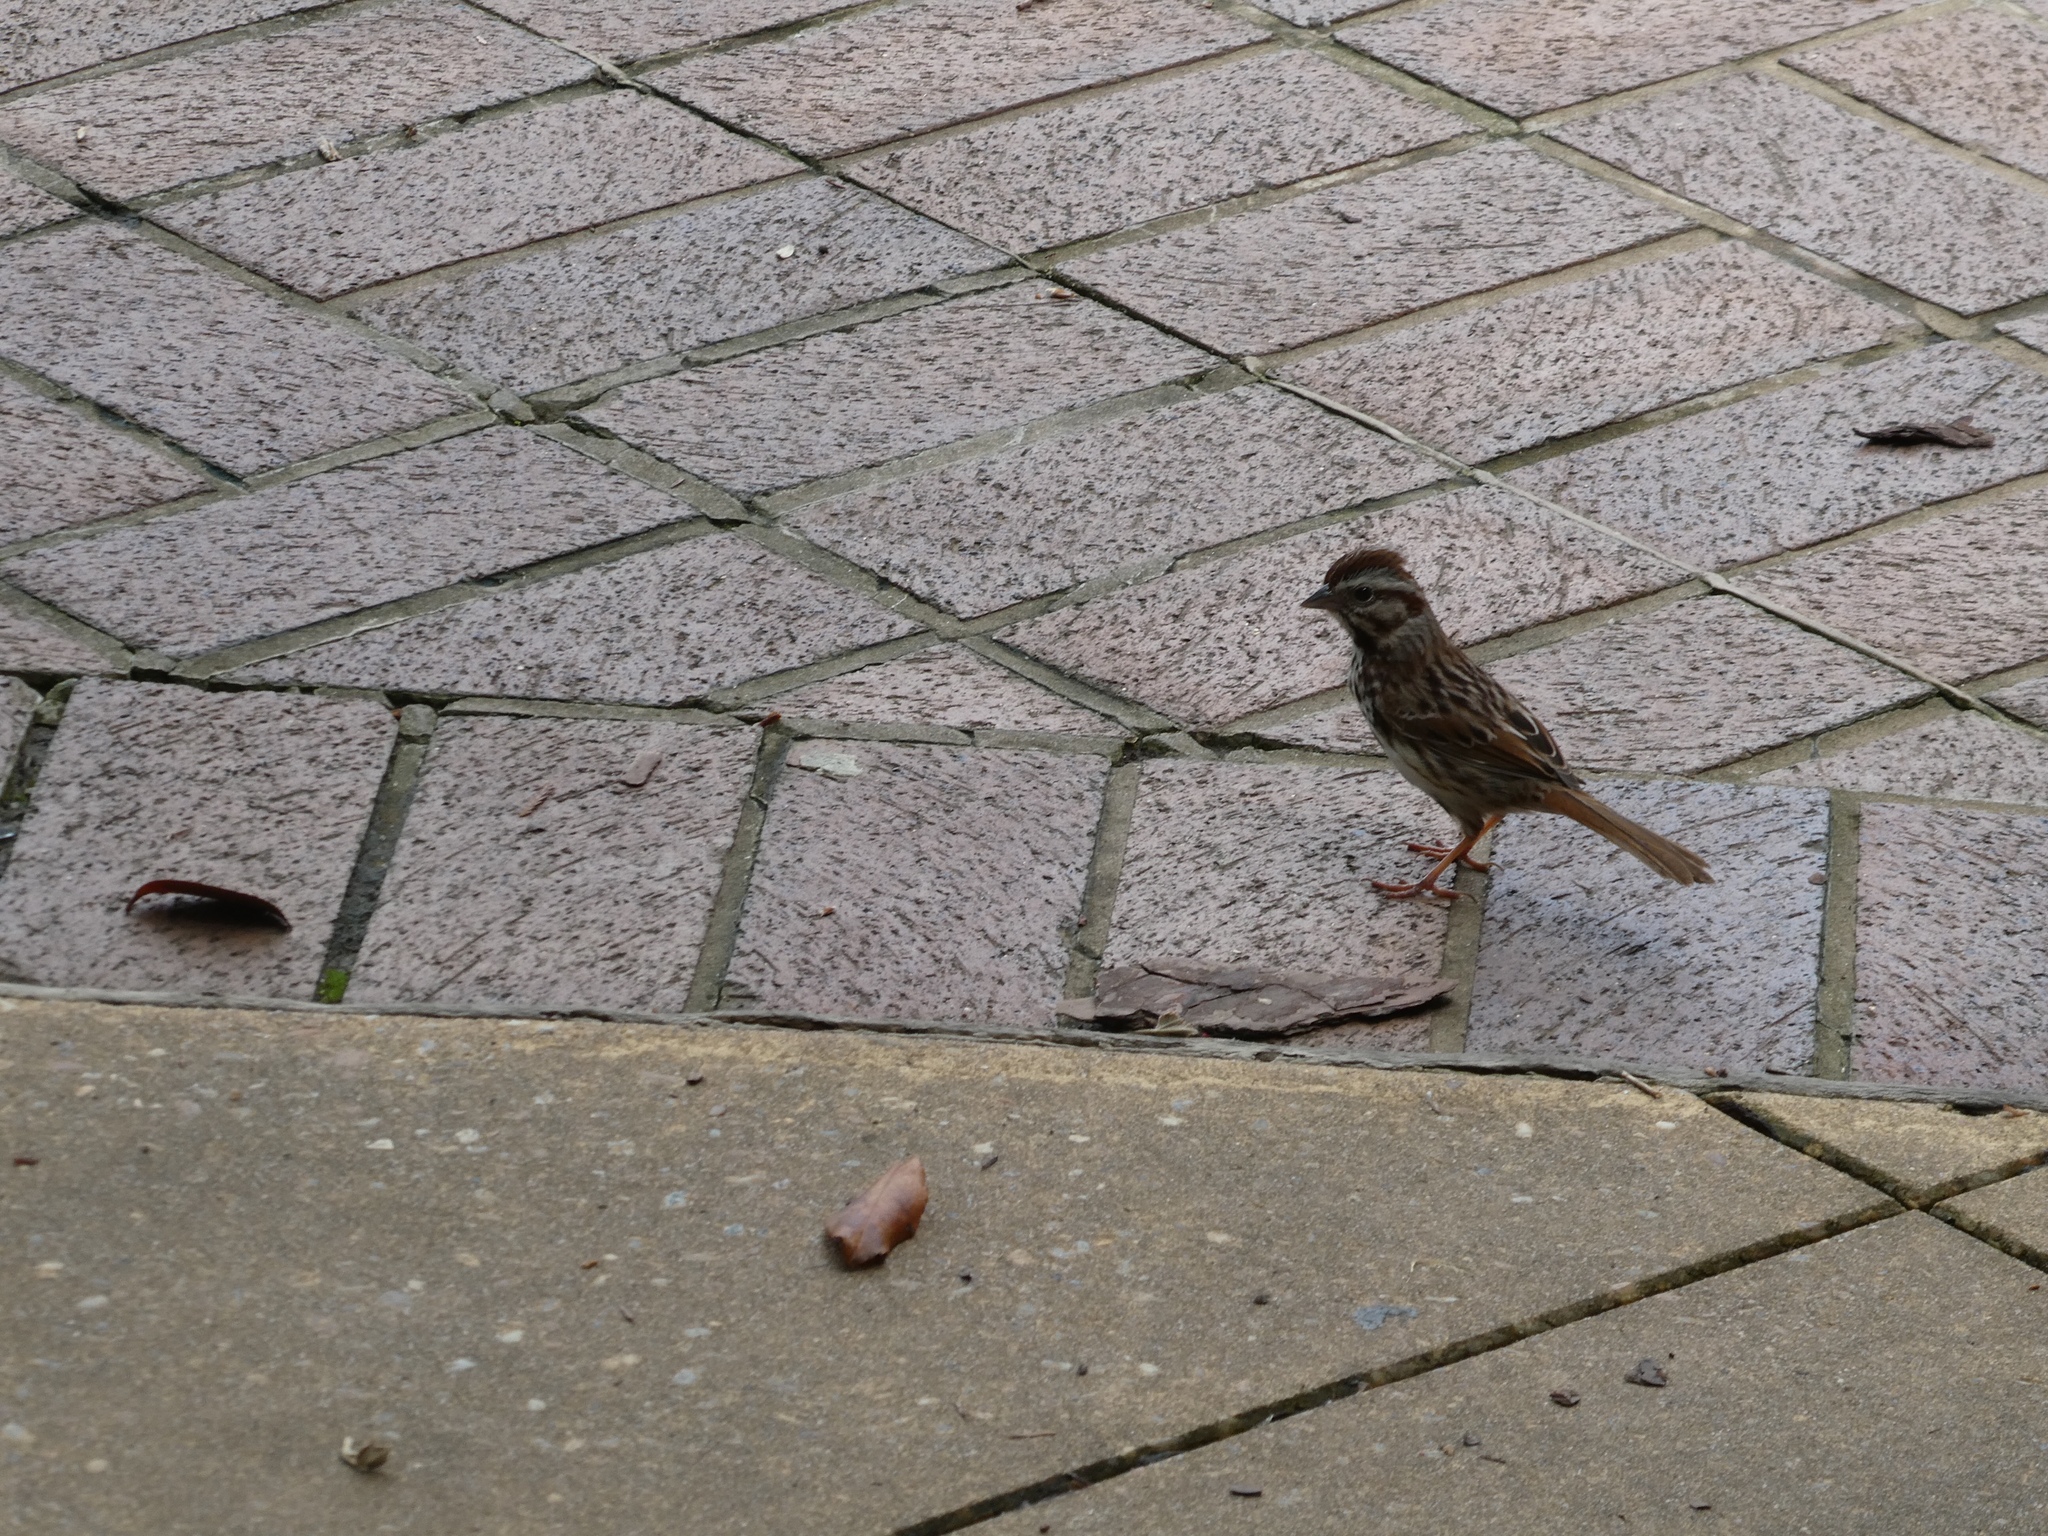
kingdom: Animalia
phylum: Chordata
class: Aves
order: Passeriformes
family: Passerellidae
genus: Melospiza
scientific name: Melospiza melodia
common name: Song sparrow
